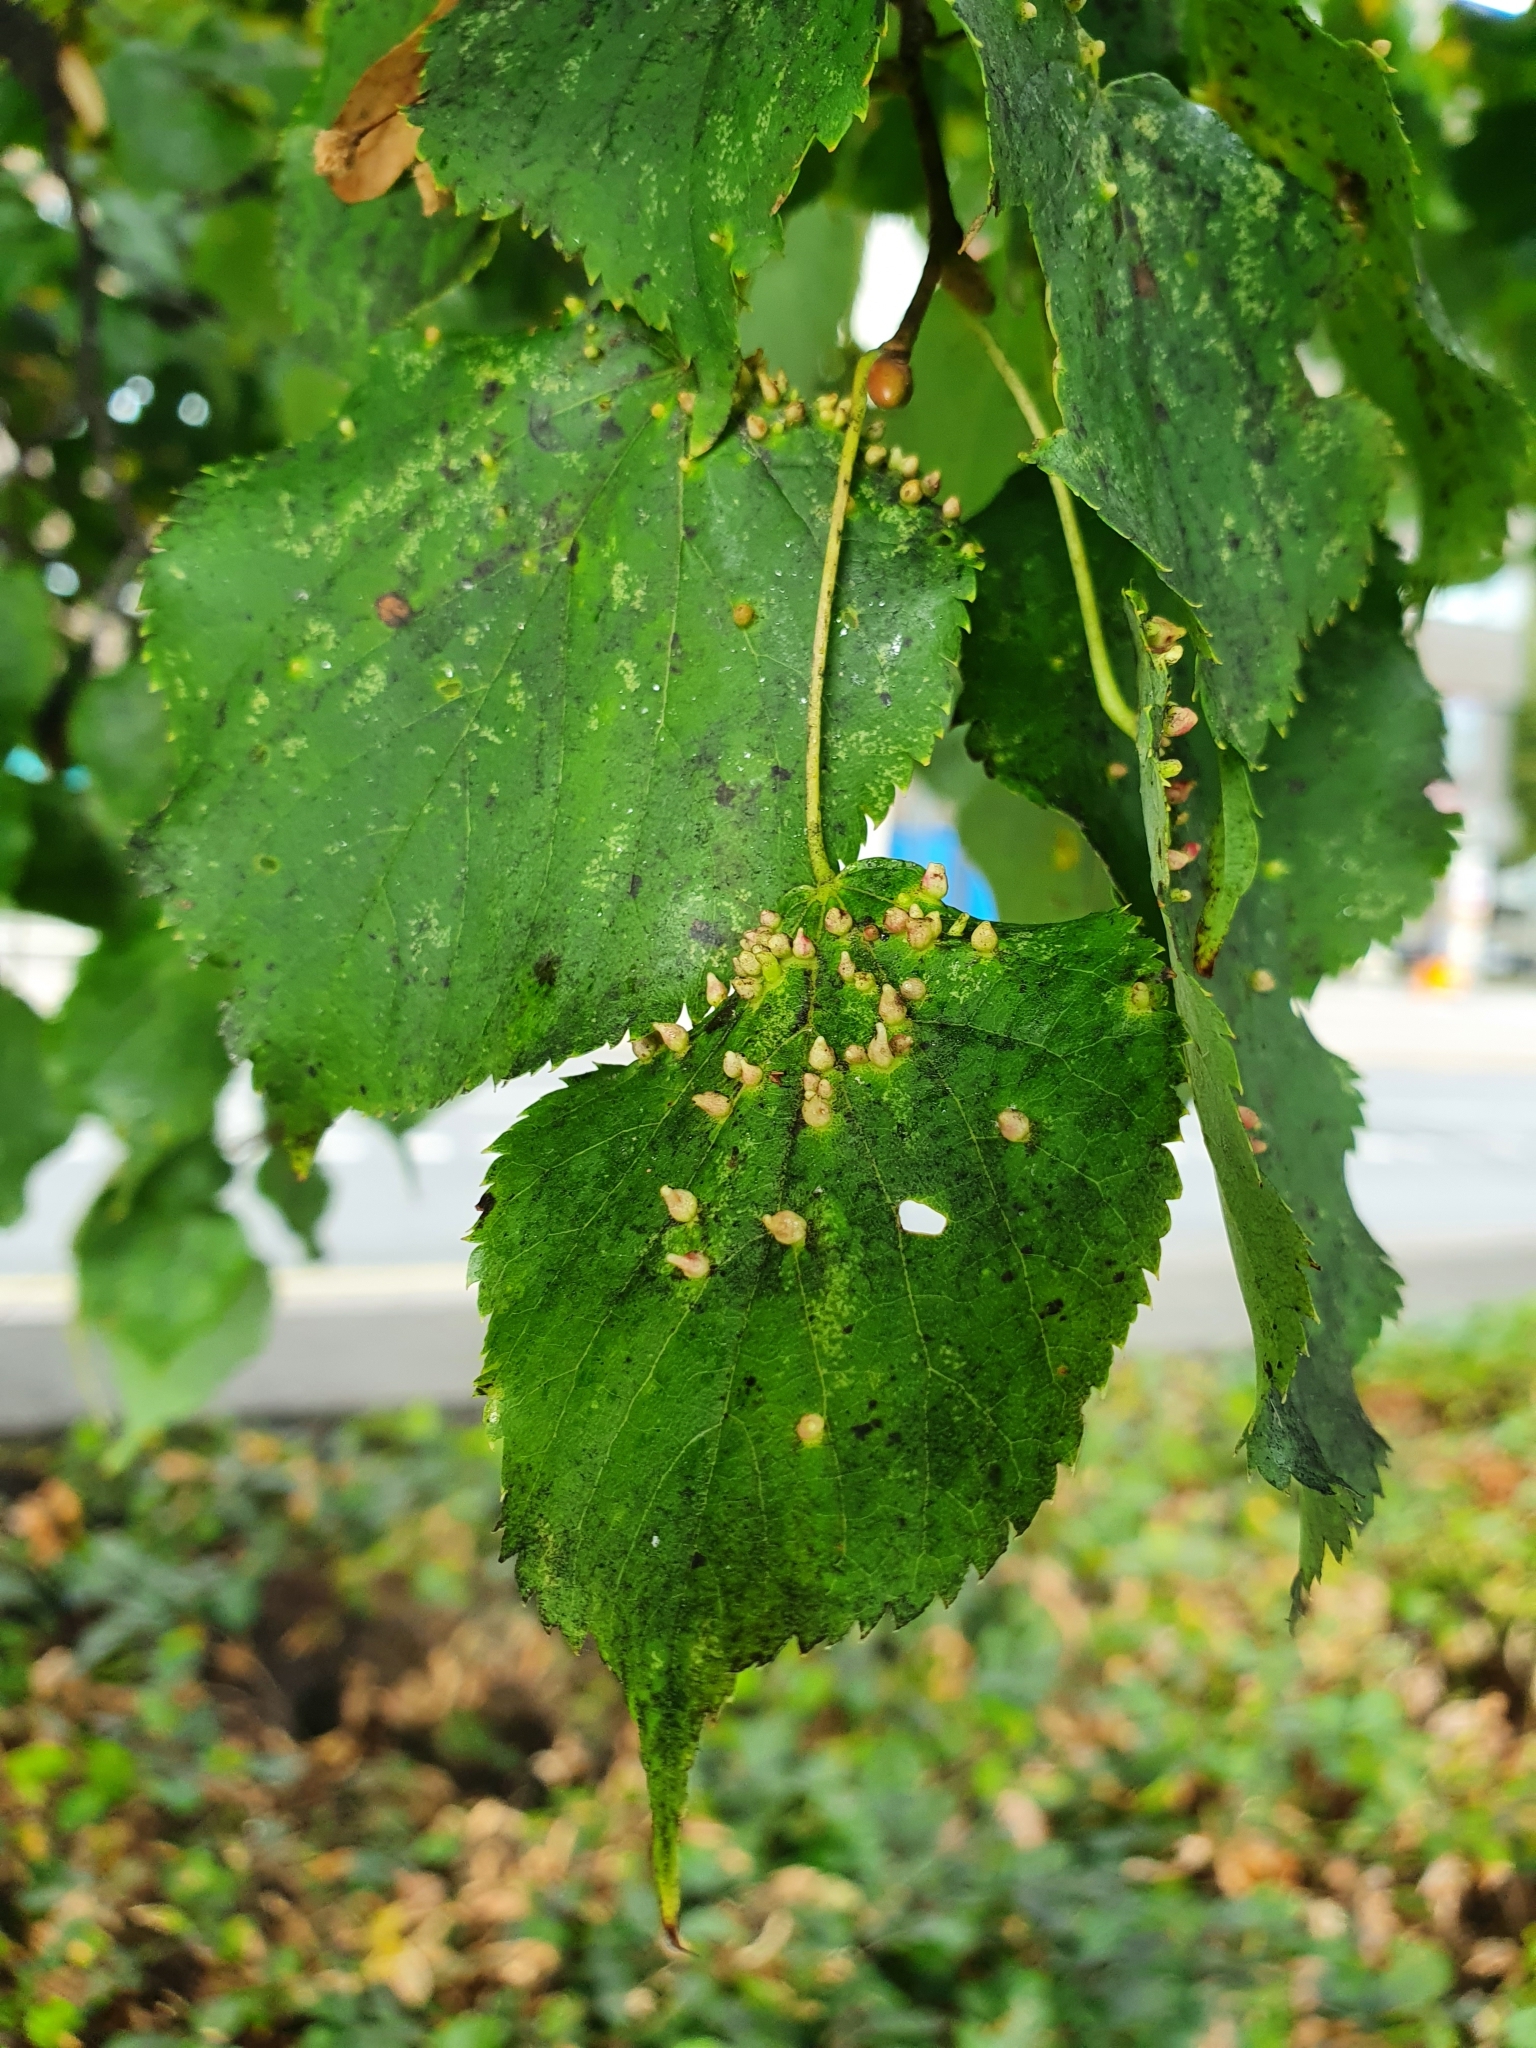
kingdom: Animalia
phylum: Arthropoda
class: Arachnida
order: Trombidiformes
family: Eriophyidae
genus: Eriophyes
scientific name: Eriophyes tiliae
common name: Red nail gall mite
